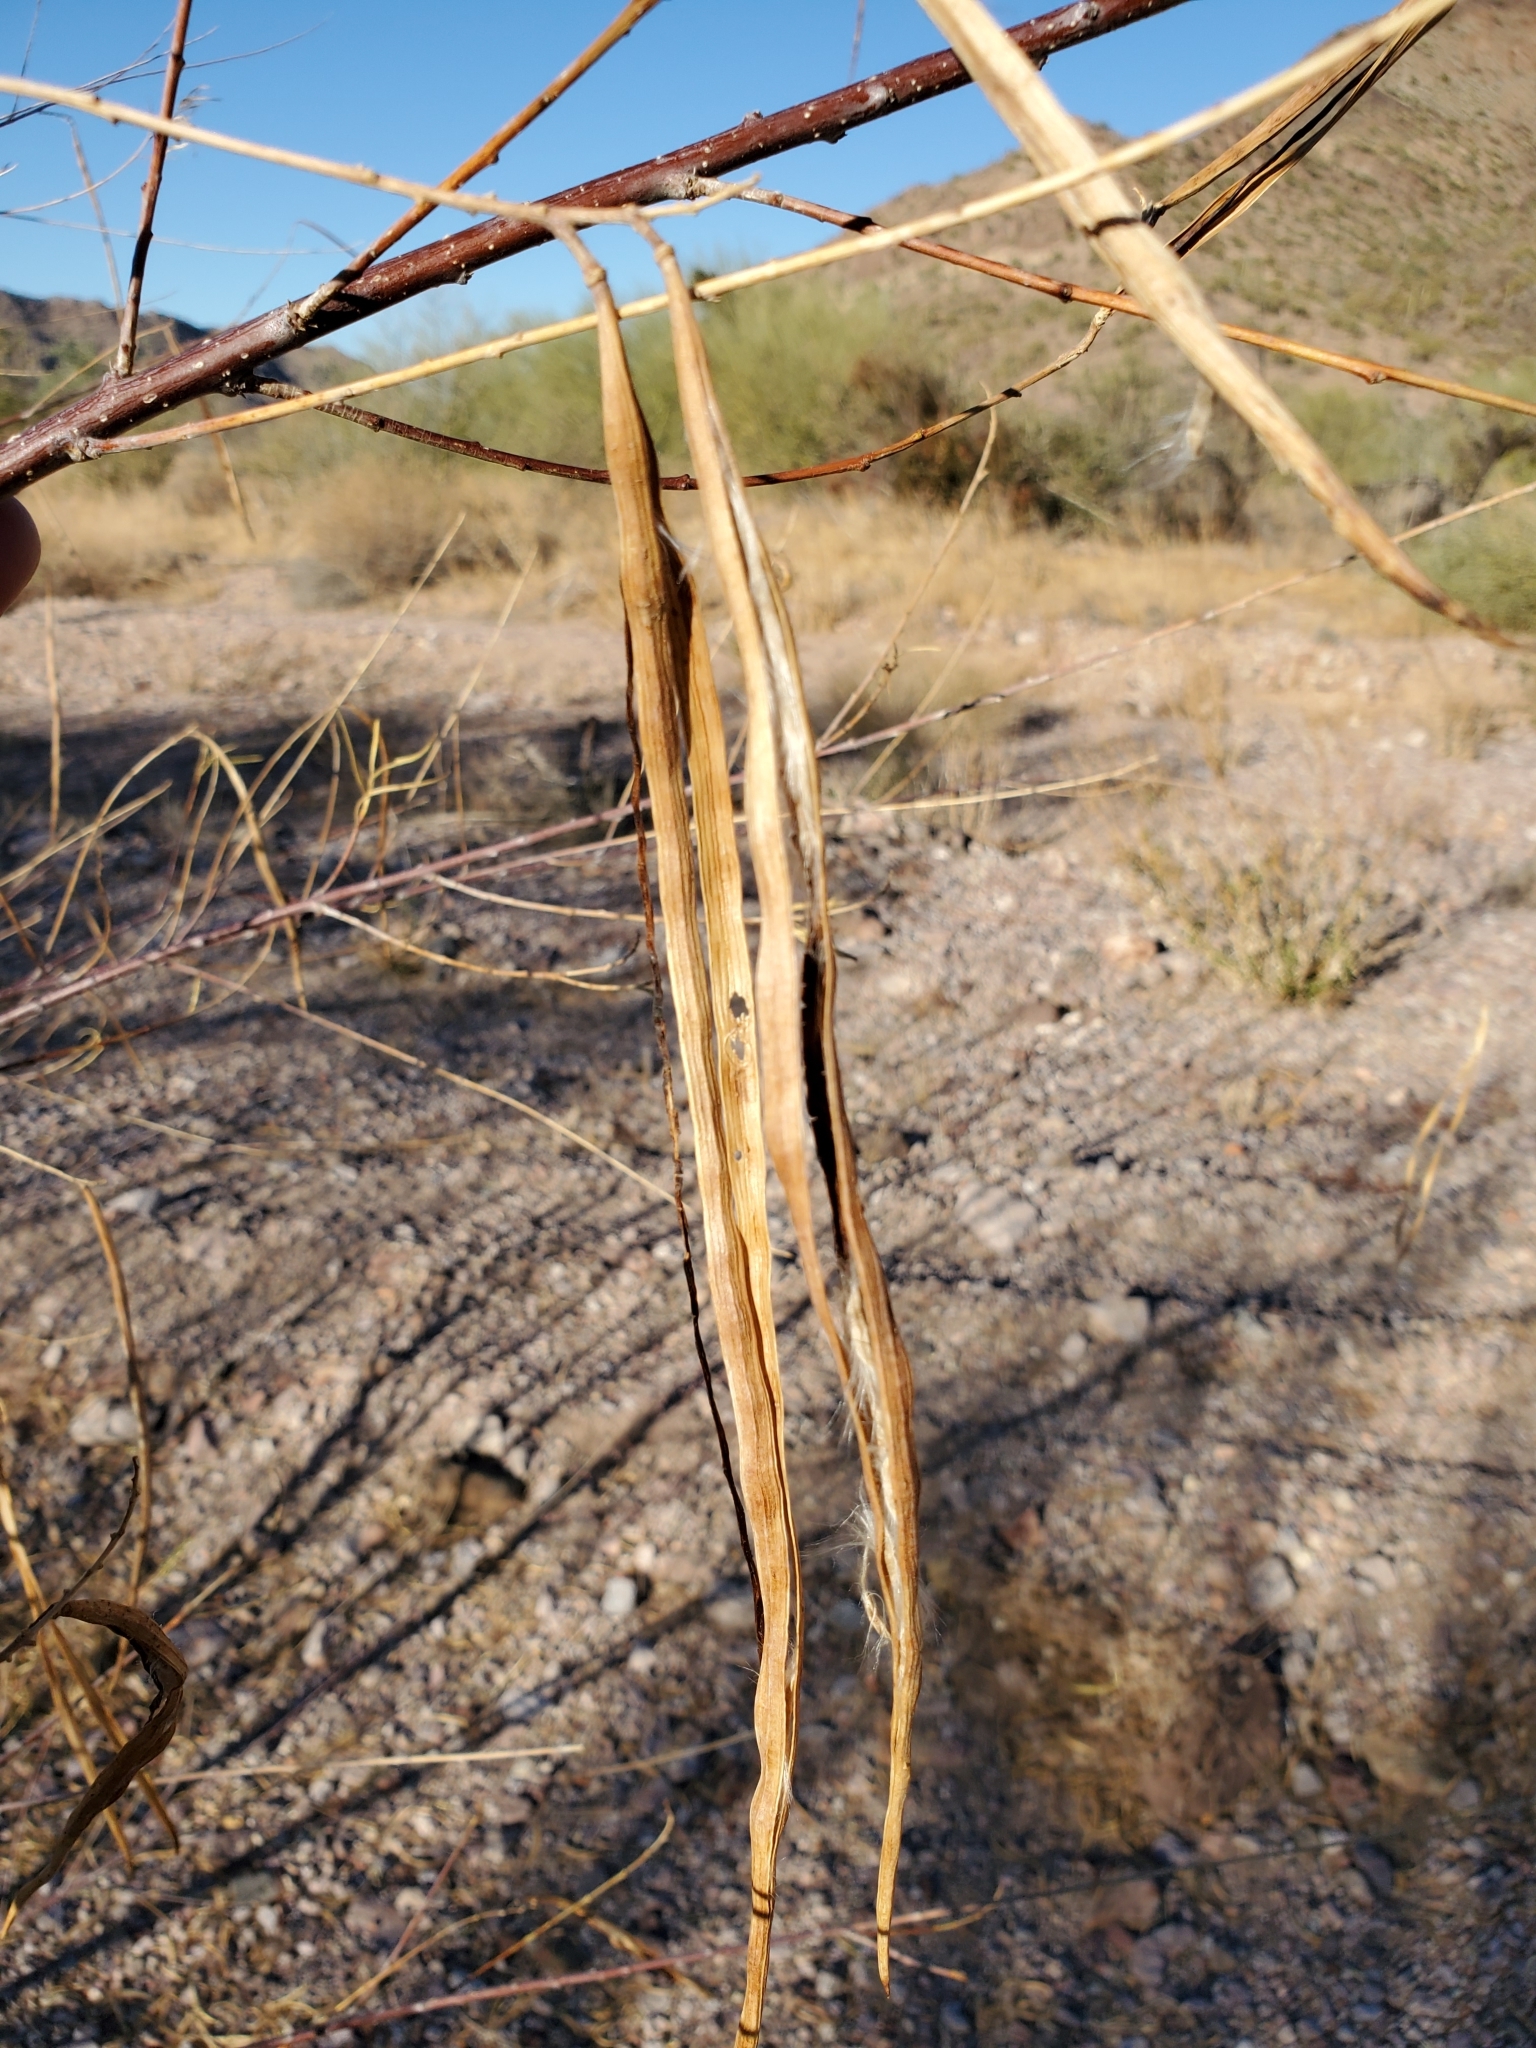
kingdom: Plantae
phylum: Tracheophyta
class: Magnoliopsida
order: Lamiales
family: Bignoniaceae
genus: Chilopsis
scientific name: Chilopsis linearis
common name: Desert-willow
